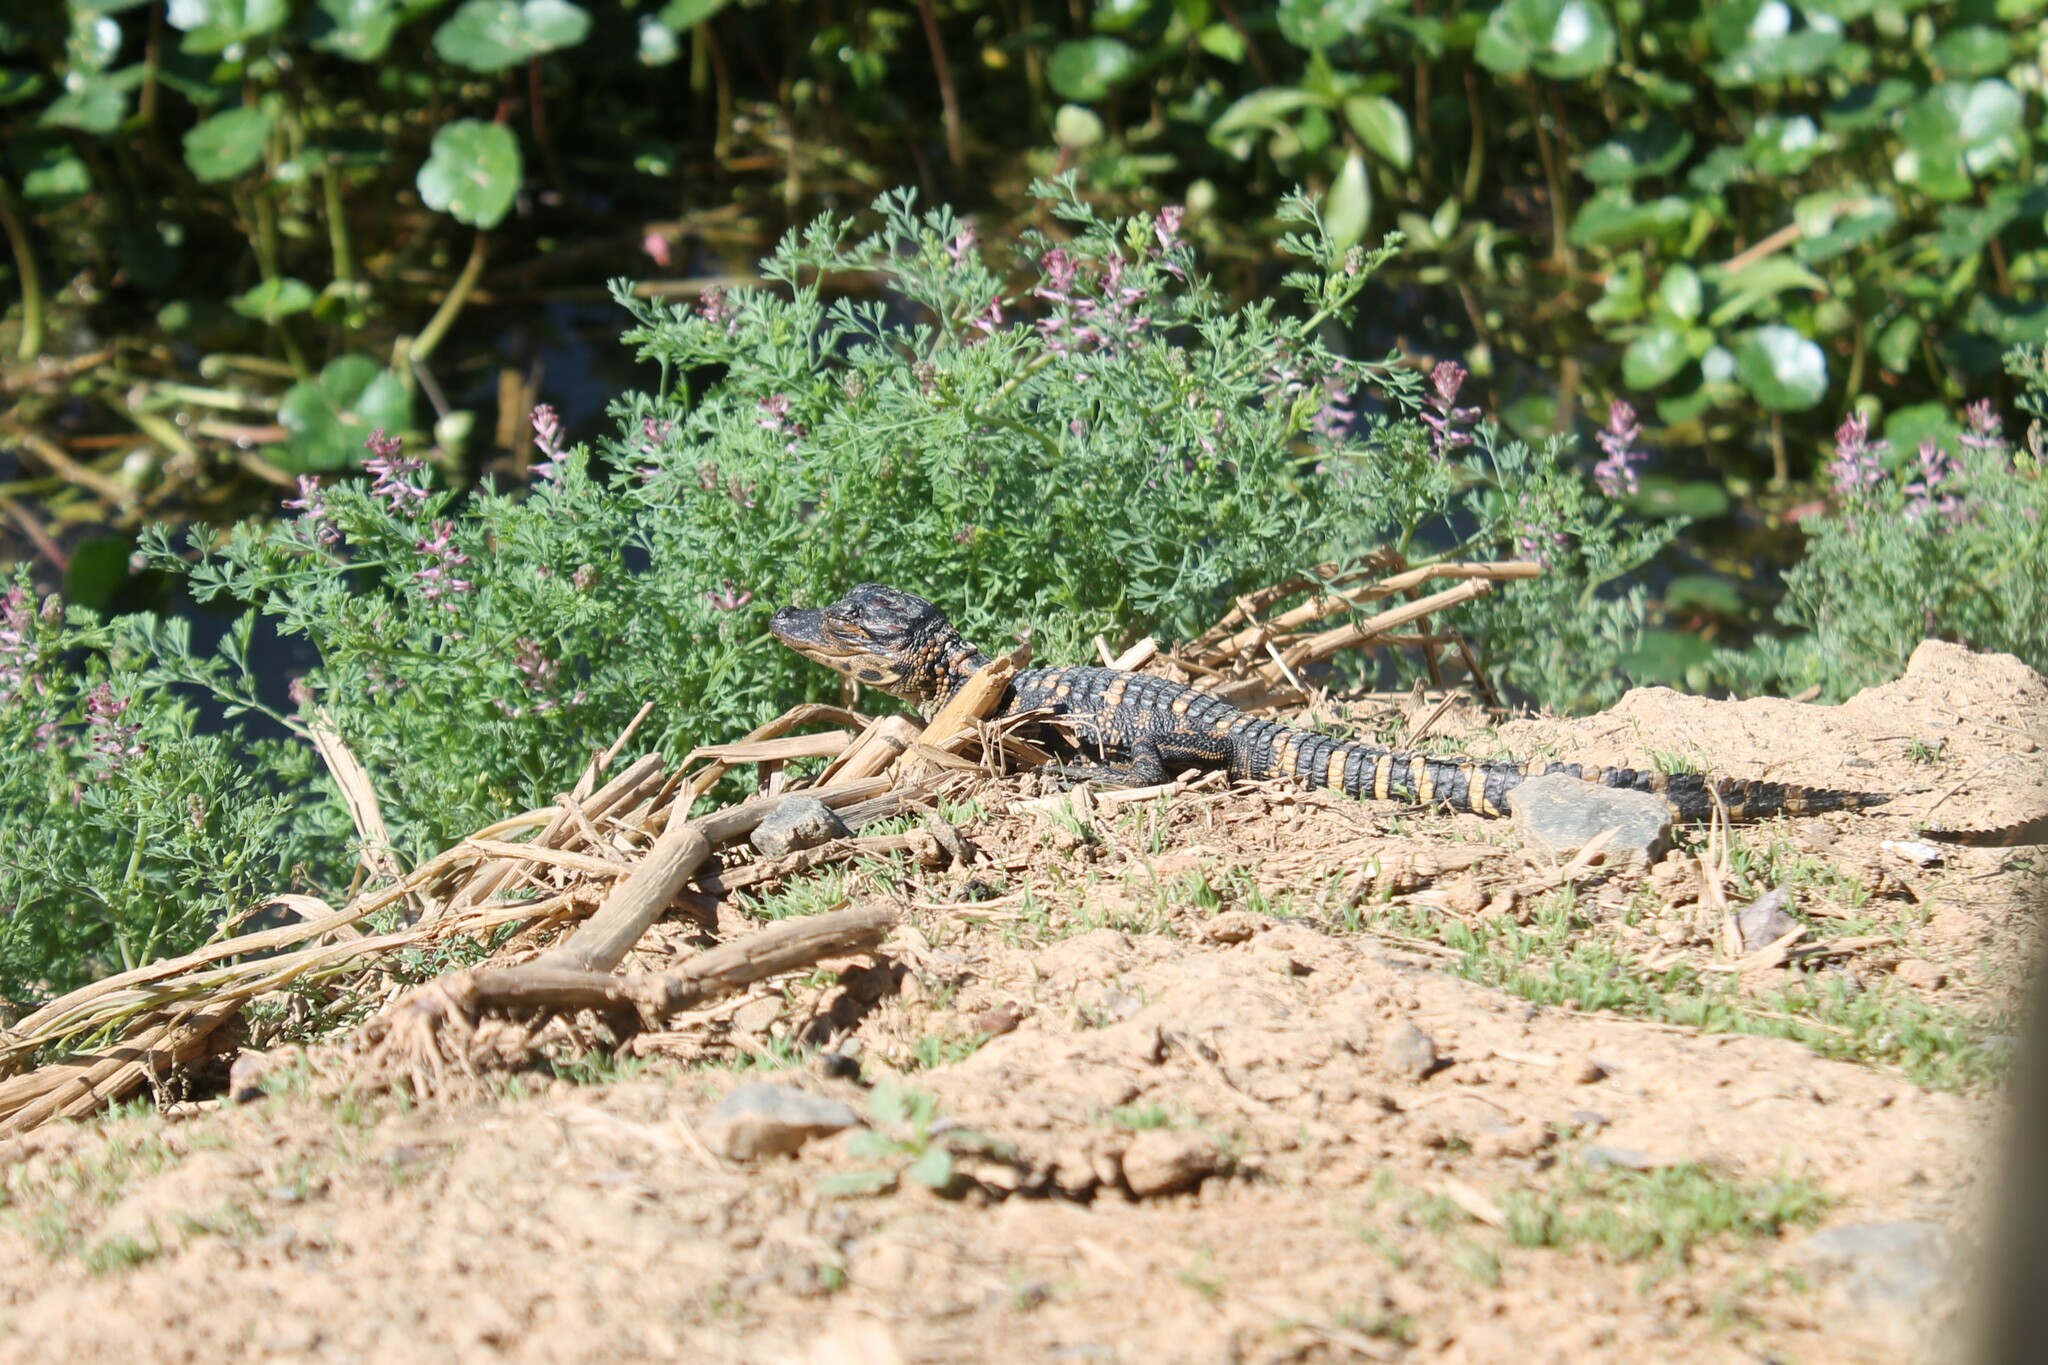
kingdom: Animalia
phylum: Chordata
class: Crocodylia
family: Alligatoridae
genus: Alligator
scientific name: Alligator mississippiensis
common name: American alligator
